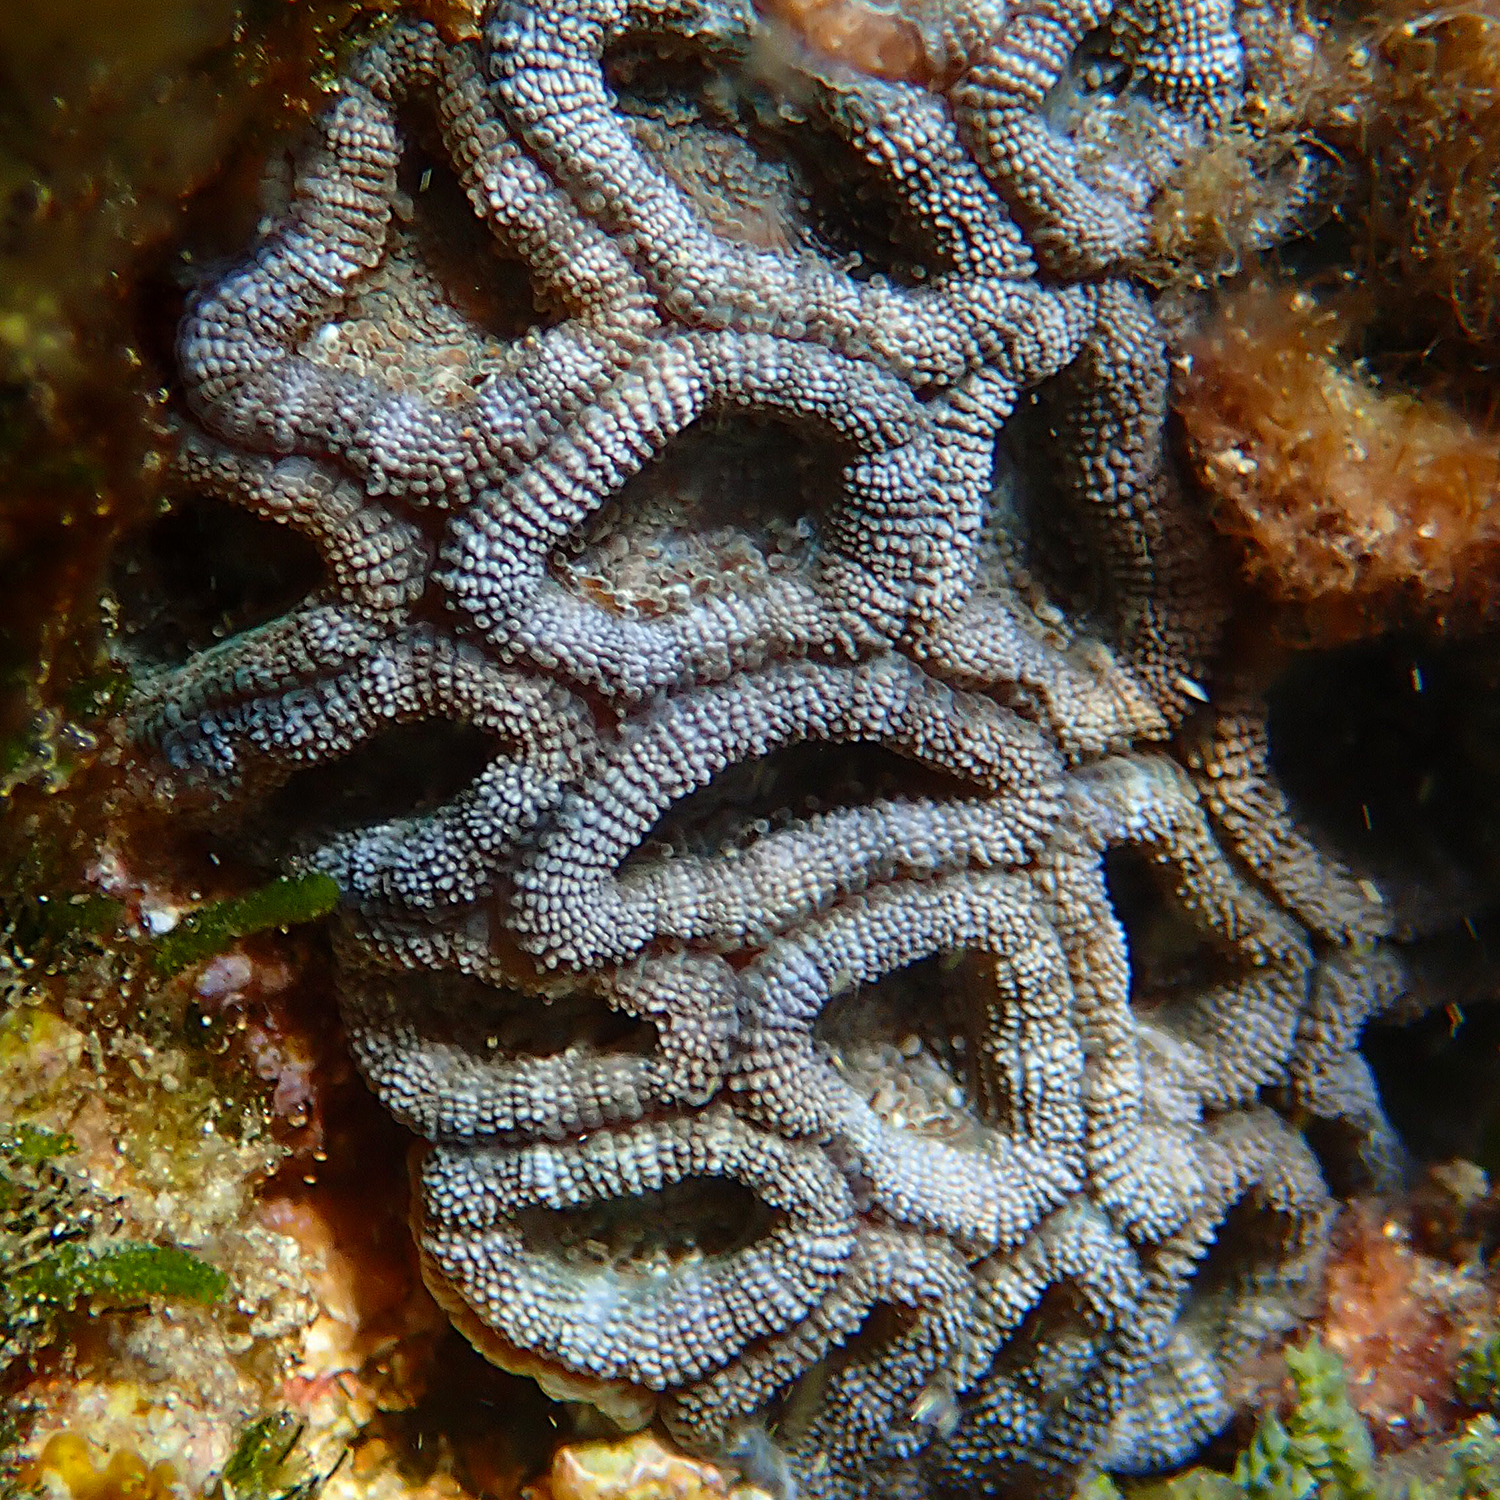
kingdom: Animalia
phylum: Cnidaria
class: Anthozoa
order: Scleractinia
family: Lobophylliidae
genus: Micromussa
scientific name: Micromussa lordhowensis
